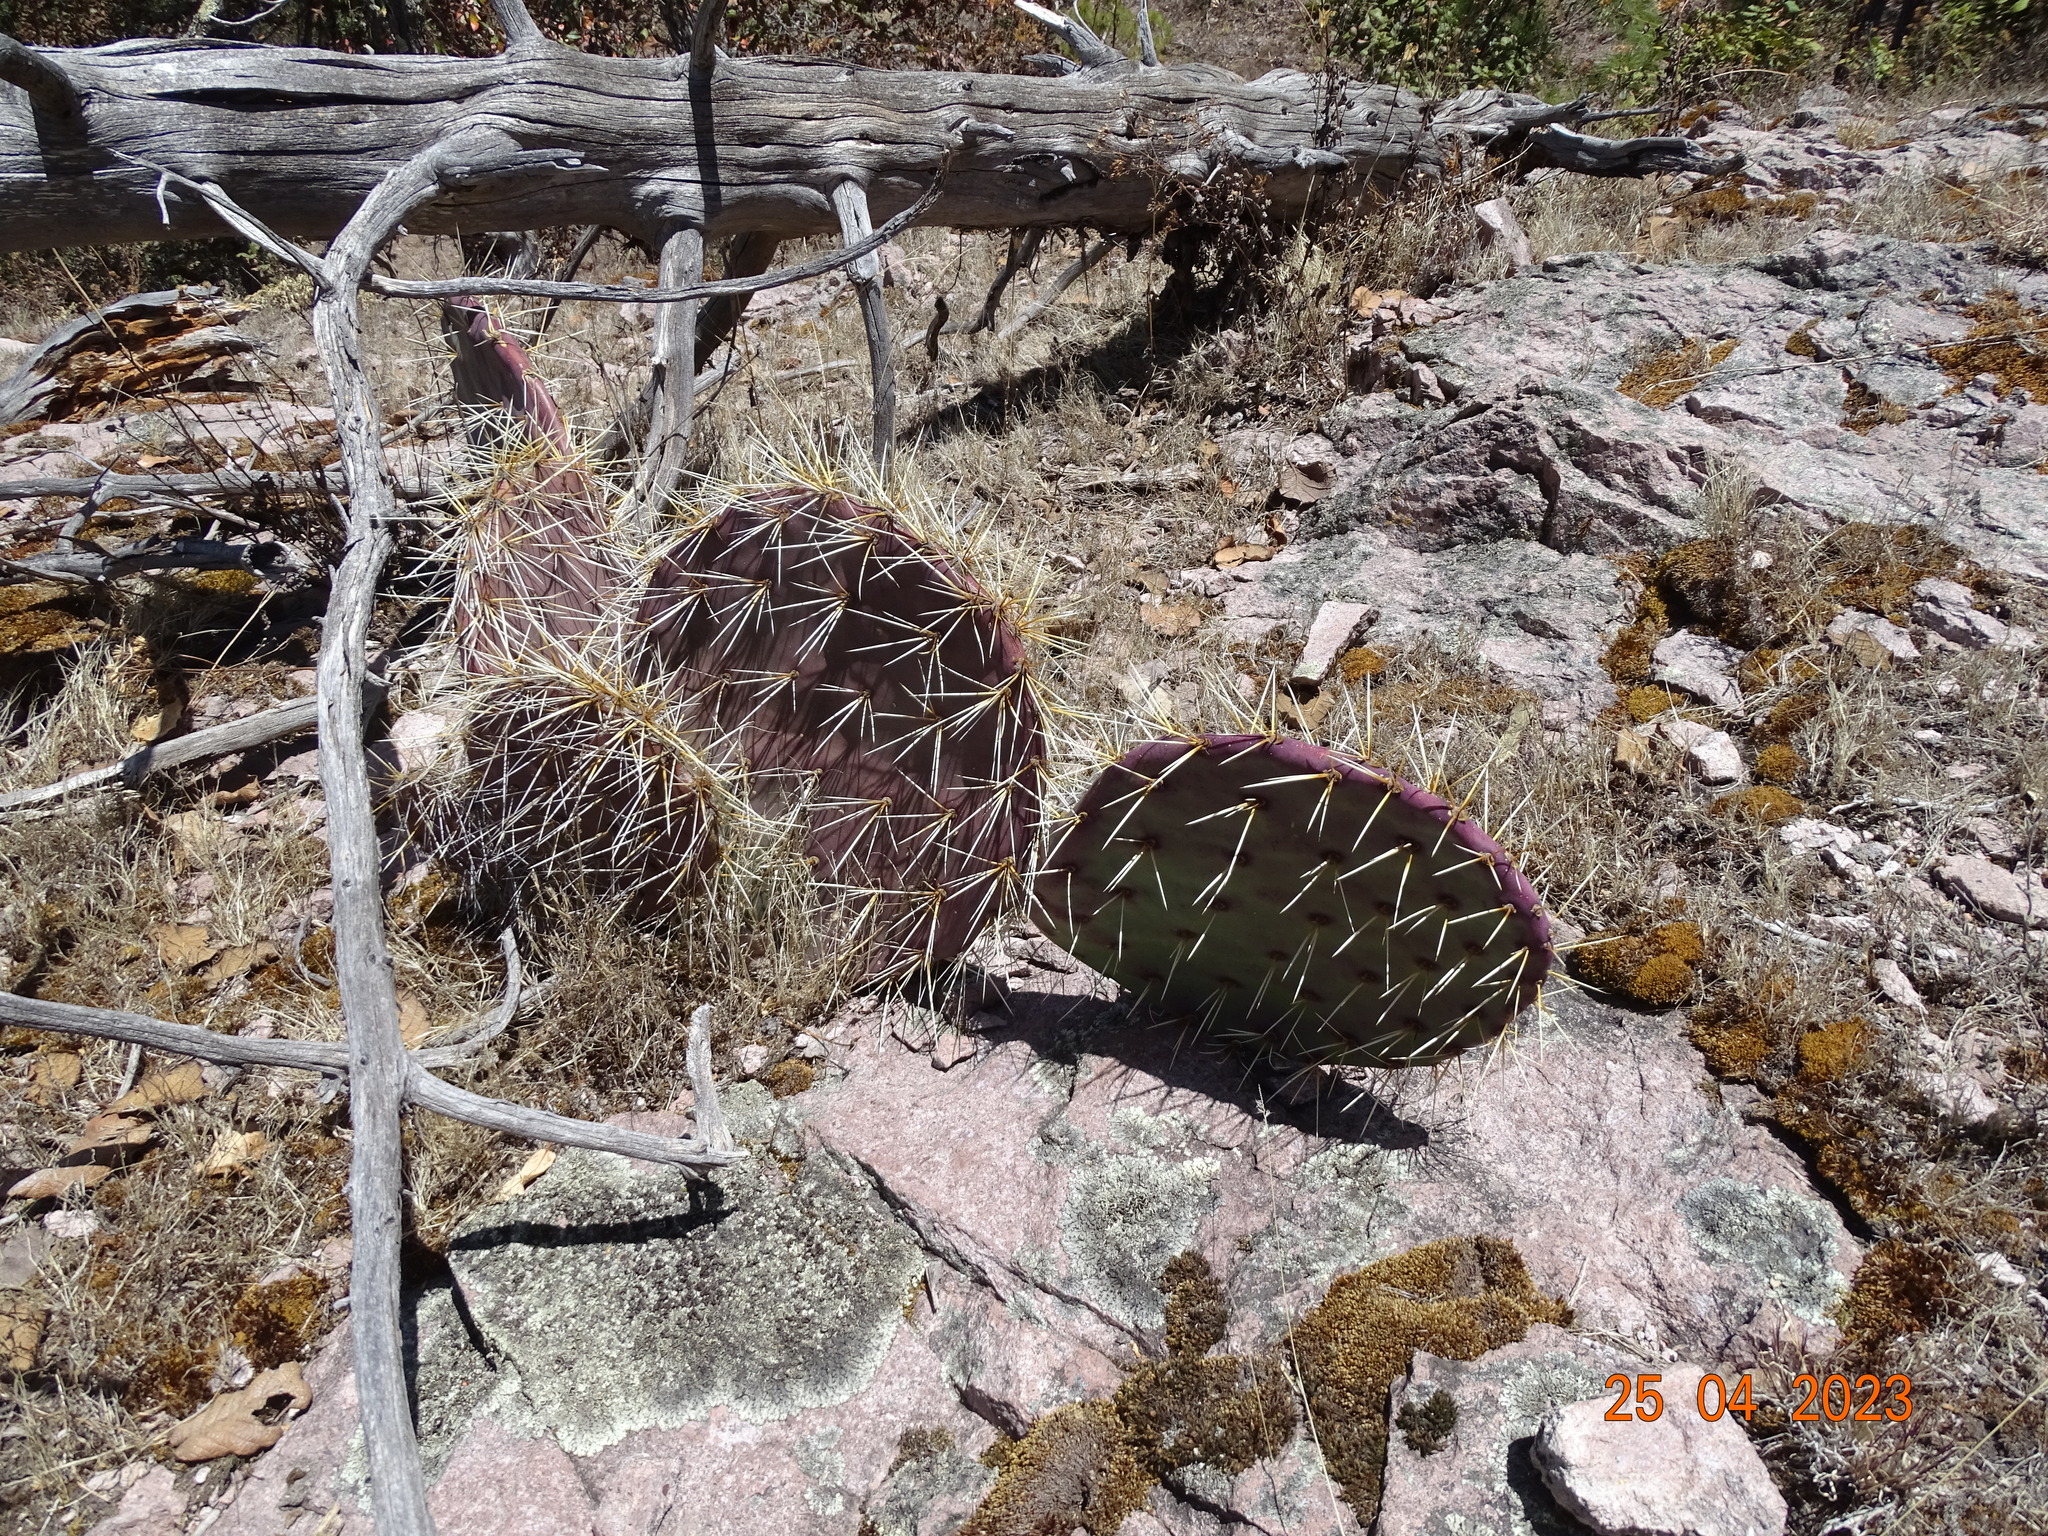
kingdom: Plantae
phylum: Tracheophyta
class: Magnoliopsida
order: Caryophyllales
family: Cactaceae
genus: Opuntia
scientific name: Opuntia robusta
